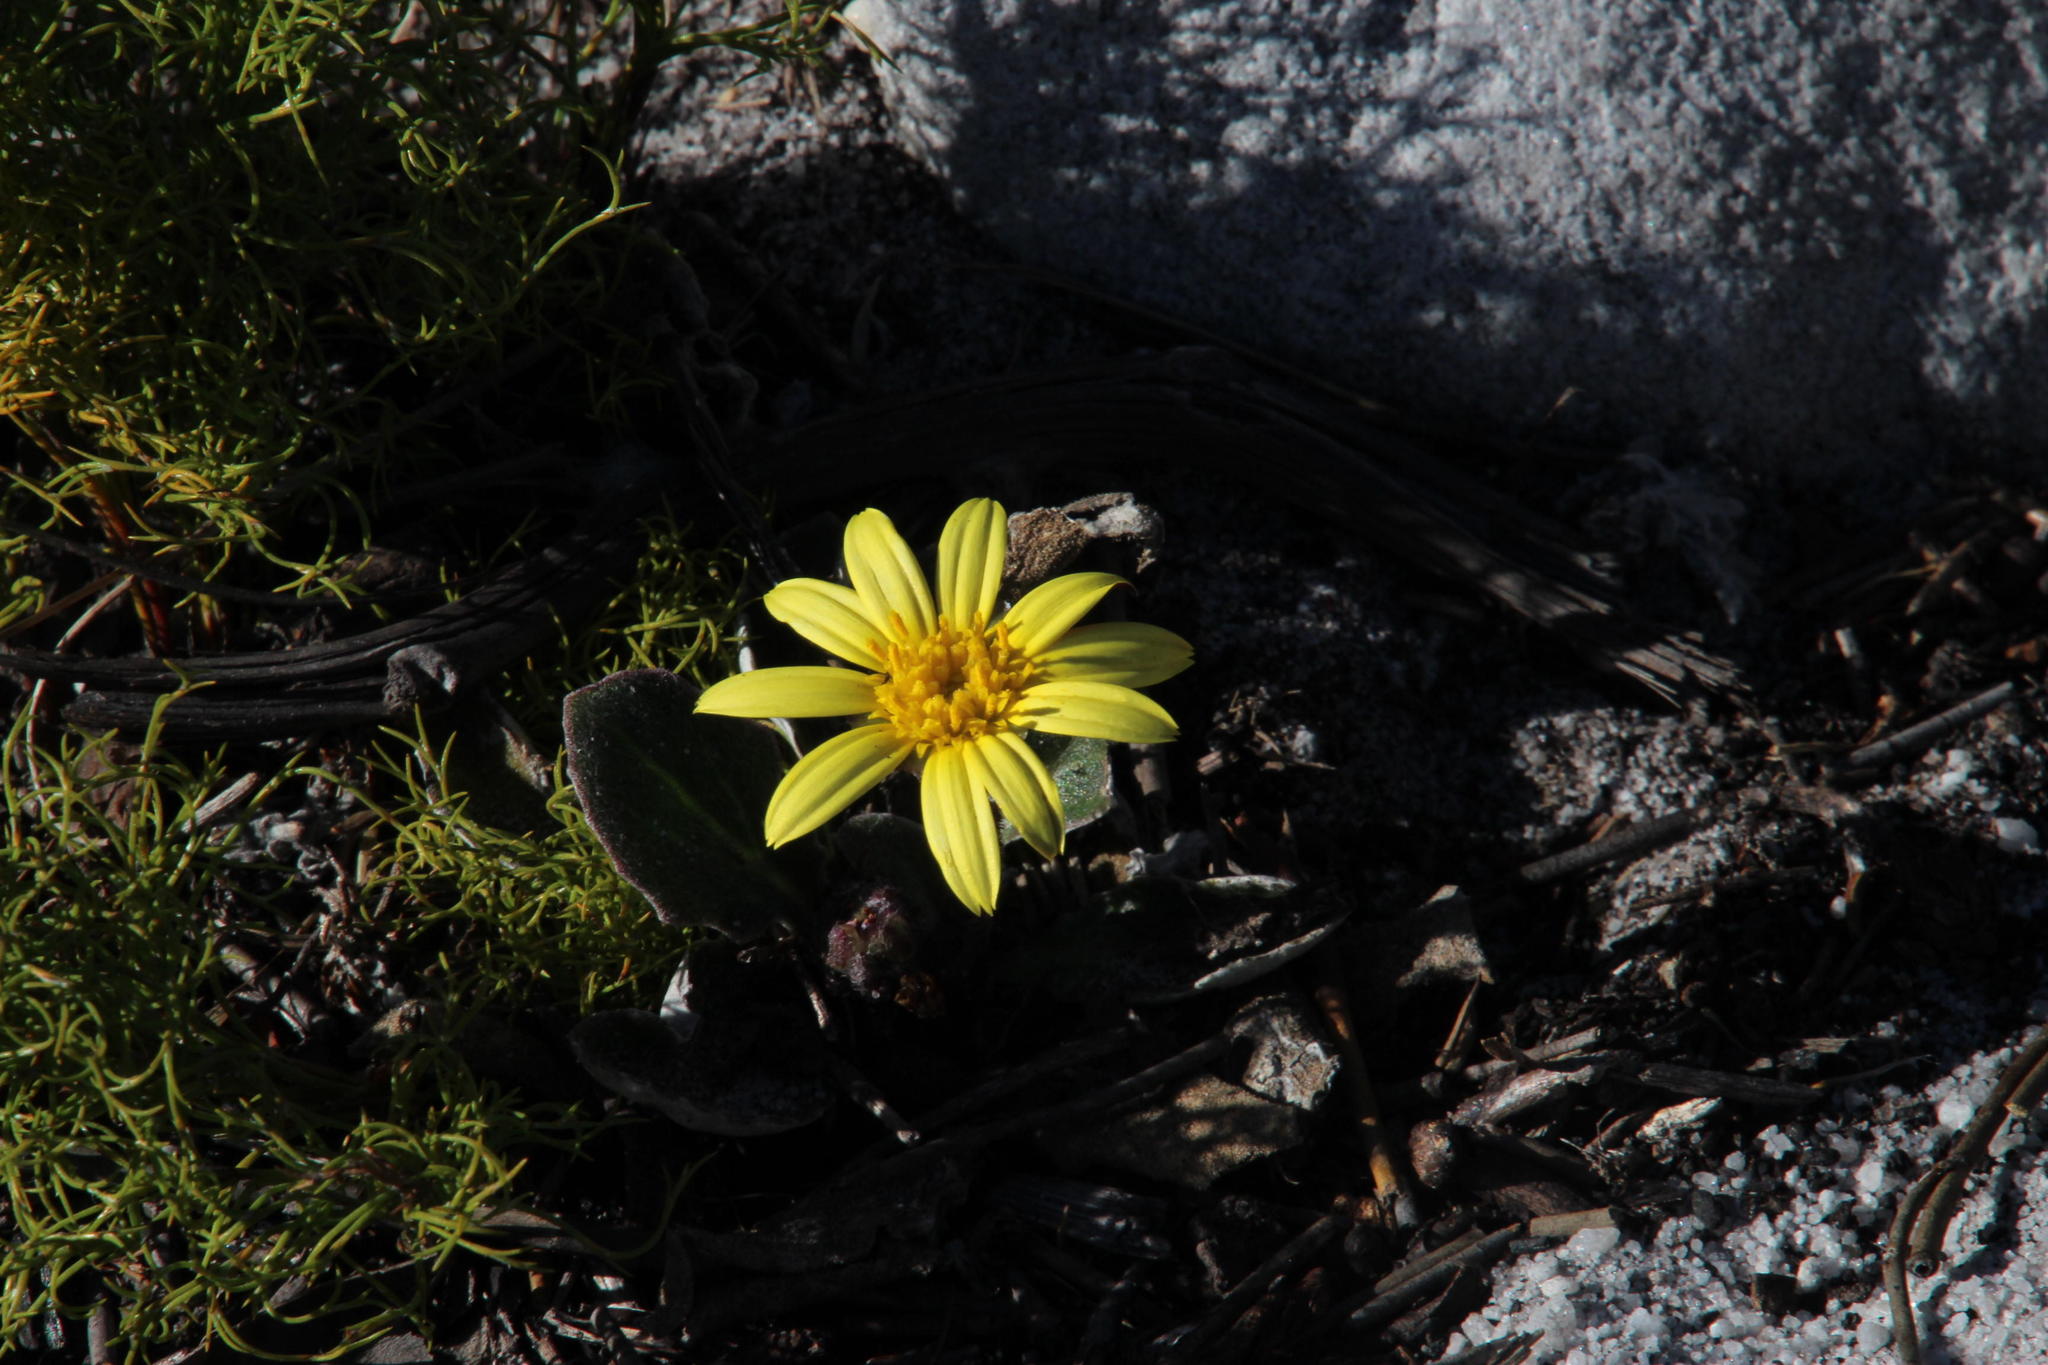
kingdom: Plantae
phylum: Tracheophyta
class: Magnoliopsida
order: Asterales
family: Asteraceae
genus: Haplocarpha
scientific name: Haplocarpha lanata
